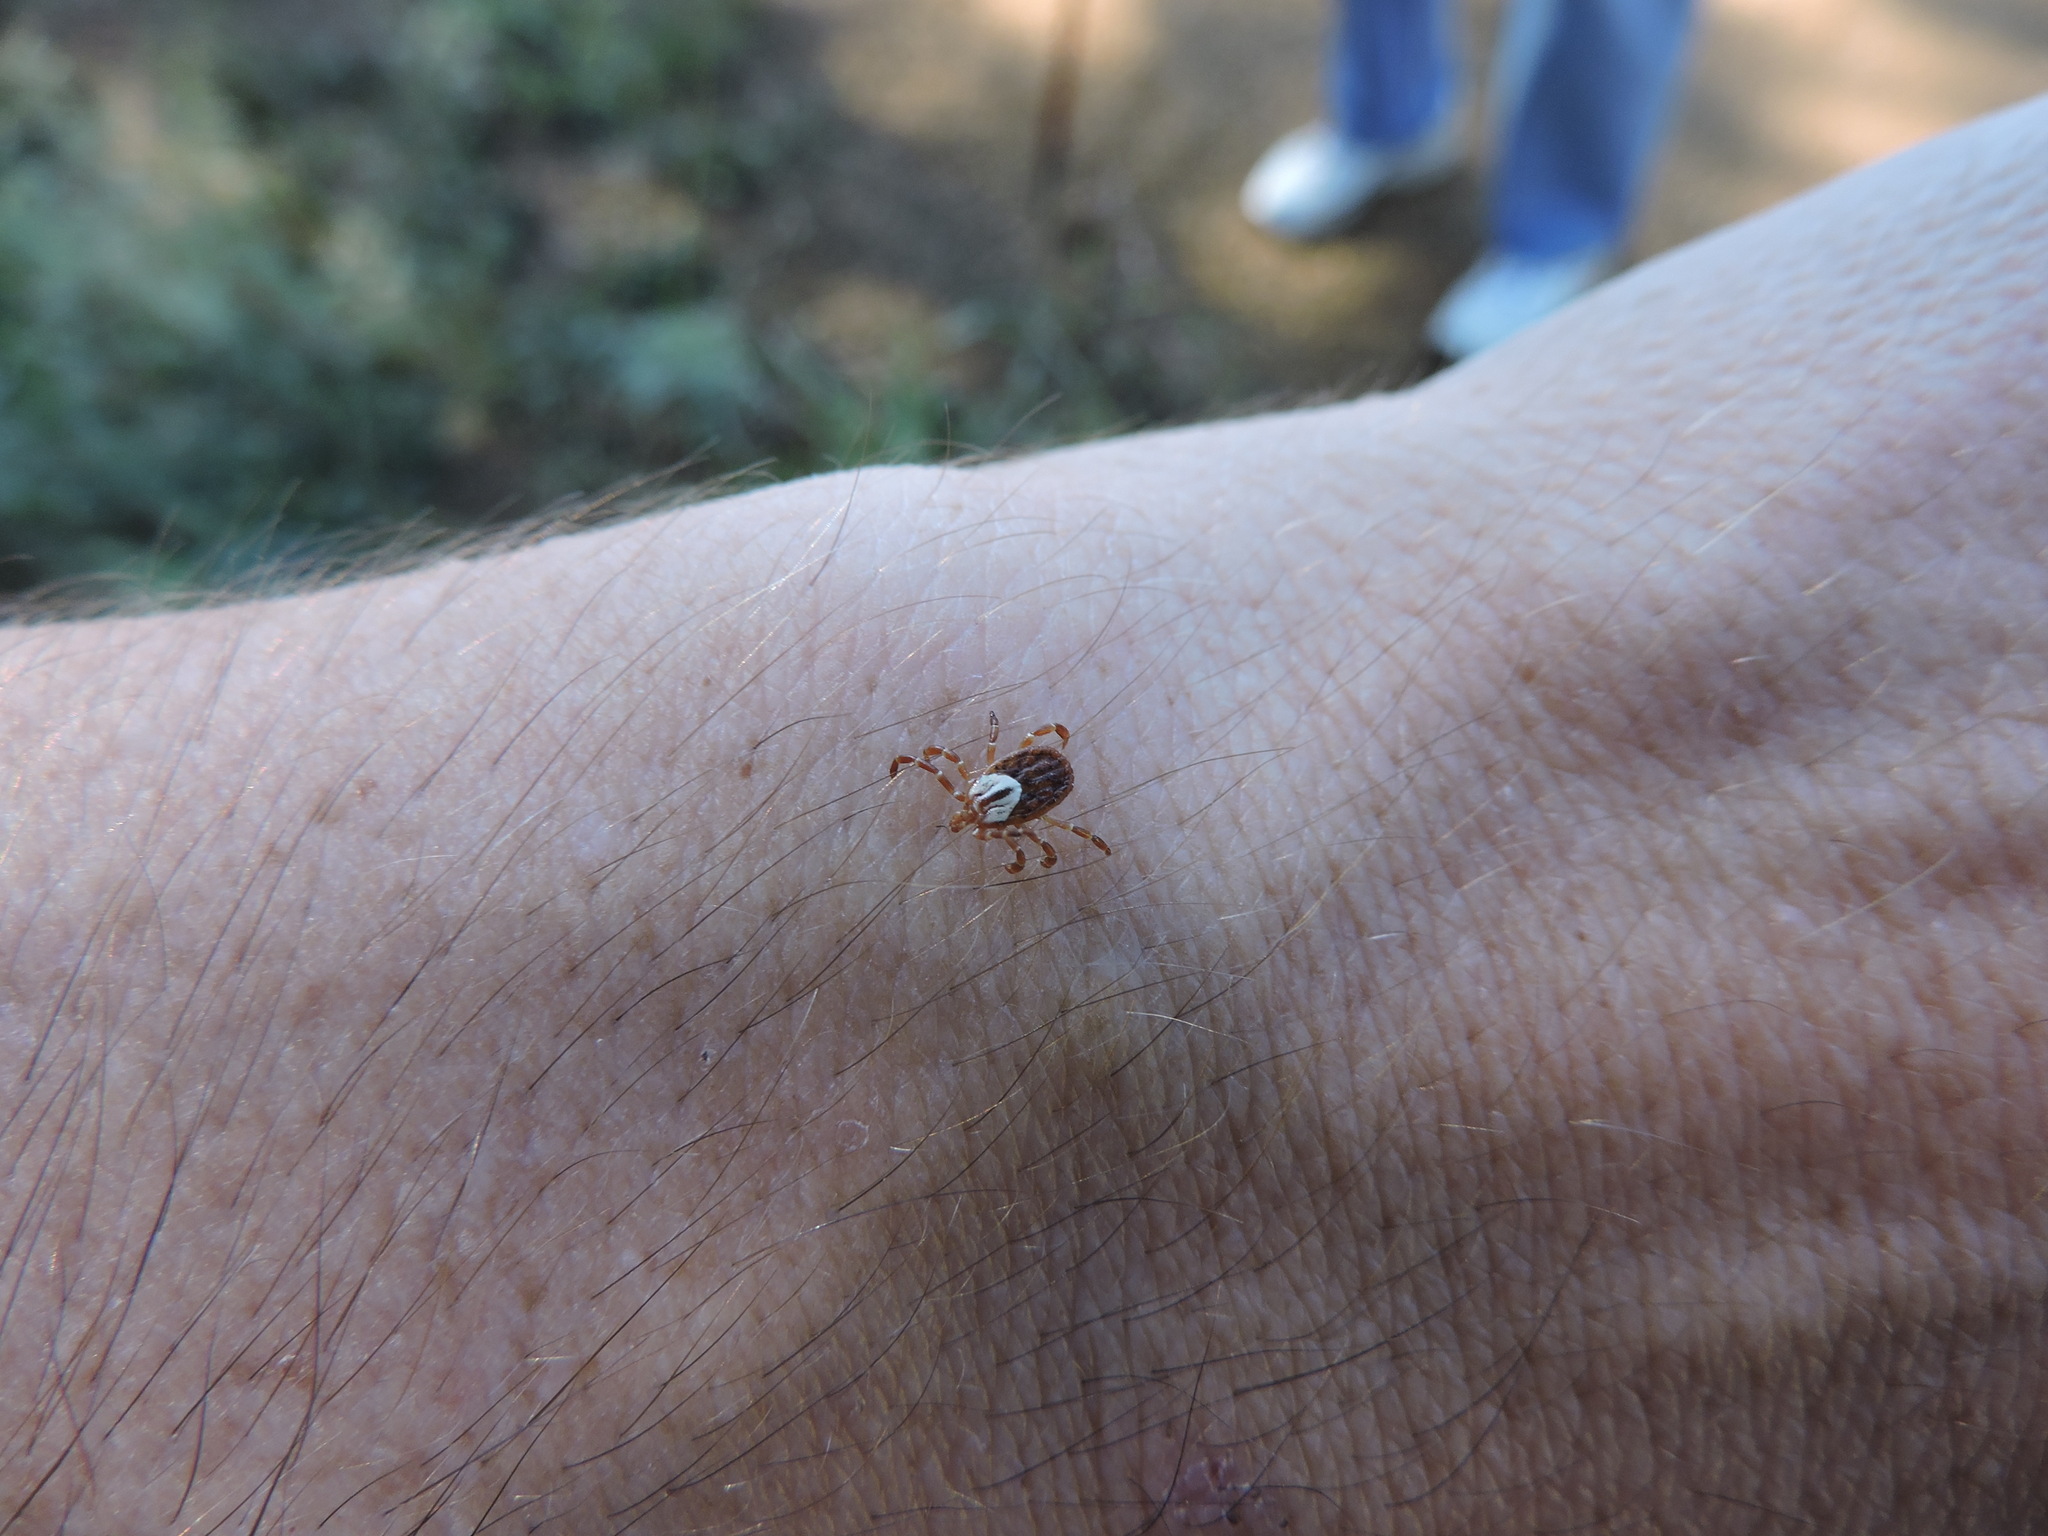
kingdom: Animalia
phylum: Arthropoda
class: Arachnida
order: Ixodida
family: Ixodidae
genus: Amblyomma
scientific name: Amblyomma maculatum
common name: Gulf coast tick
